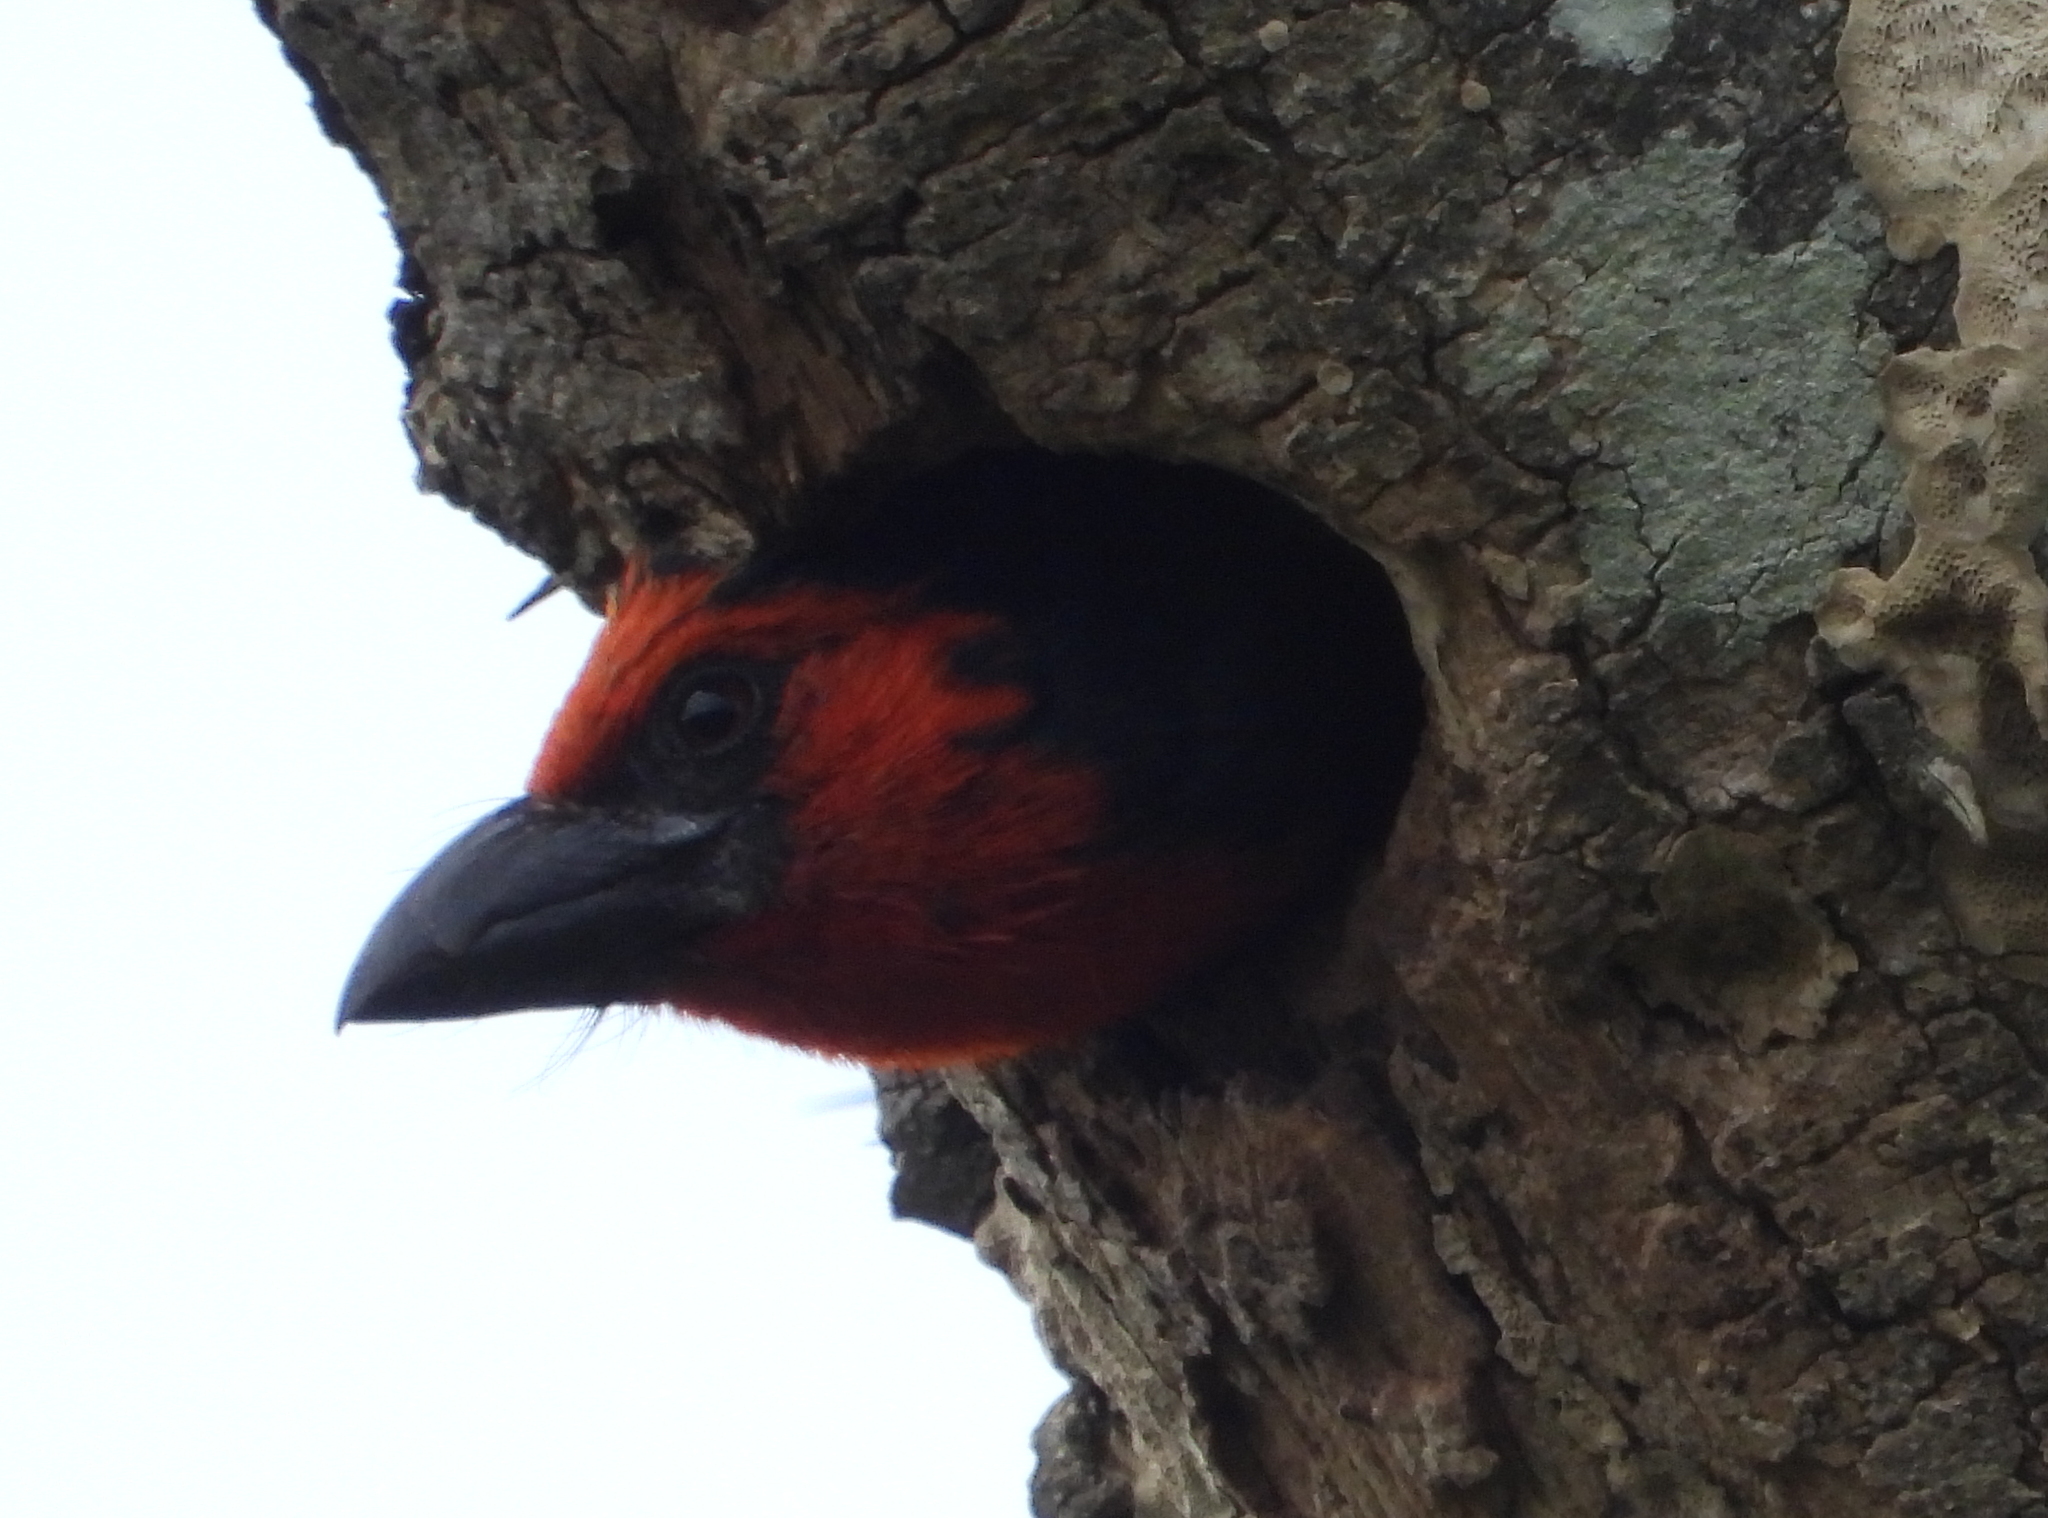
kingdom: Animalia
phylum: Chordata
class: Aves
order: Piciformes
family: Lybiidae
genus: Lybius
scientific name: Lybius torquatus
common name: Black-collared barbet
